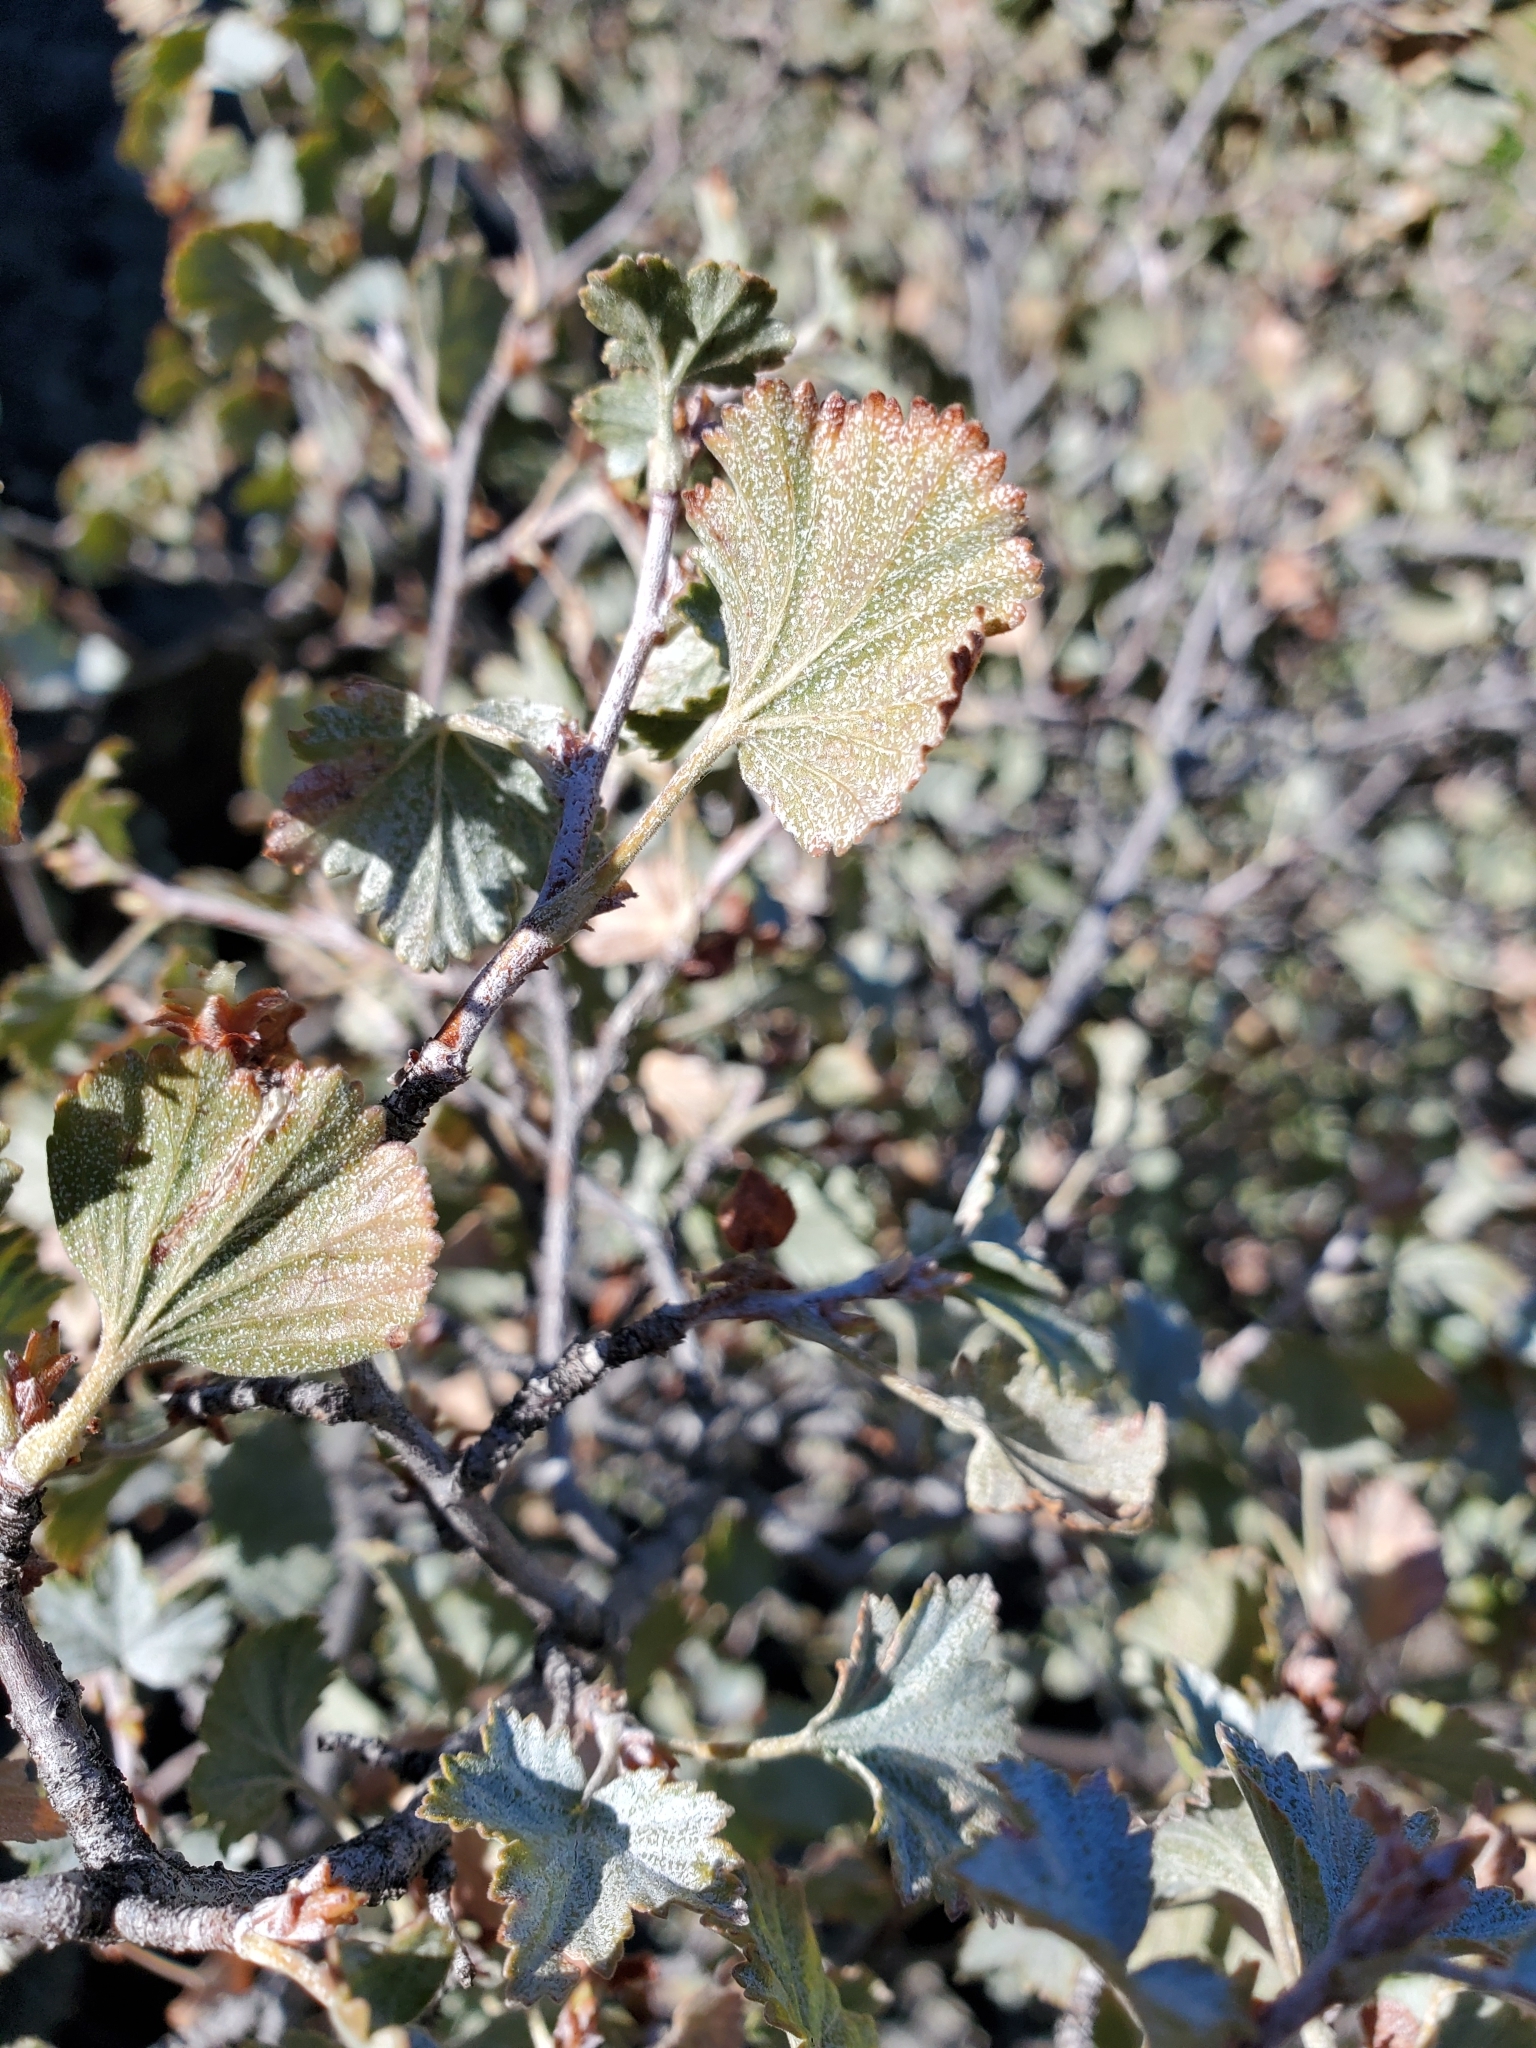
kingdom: Plantae
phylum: Tracheophyta
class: Magnoliopsida
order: Saxifragales
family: Grossulariaceae
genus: Ribes
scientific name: Ribes cereum
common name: Wax currant
